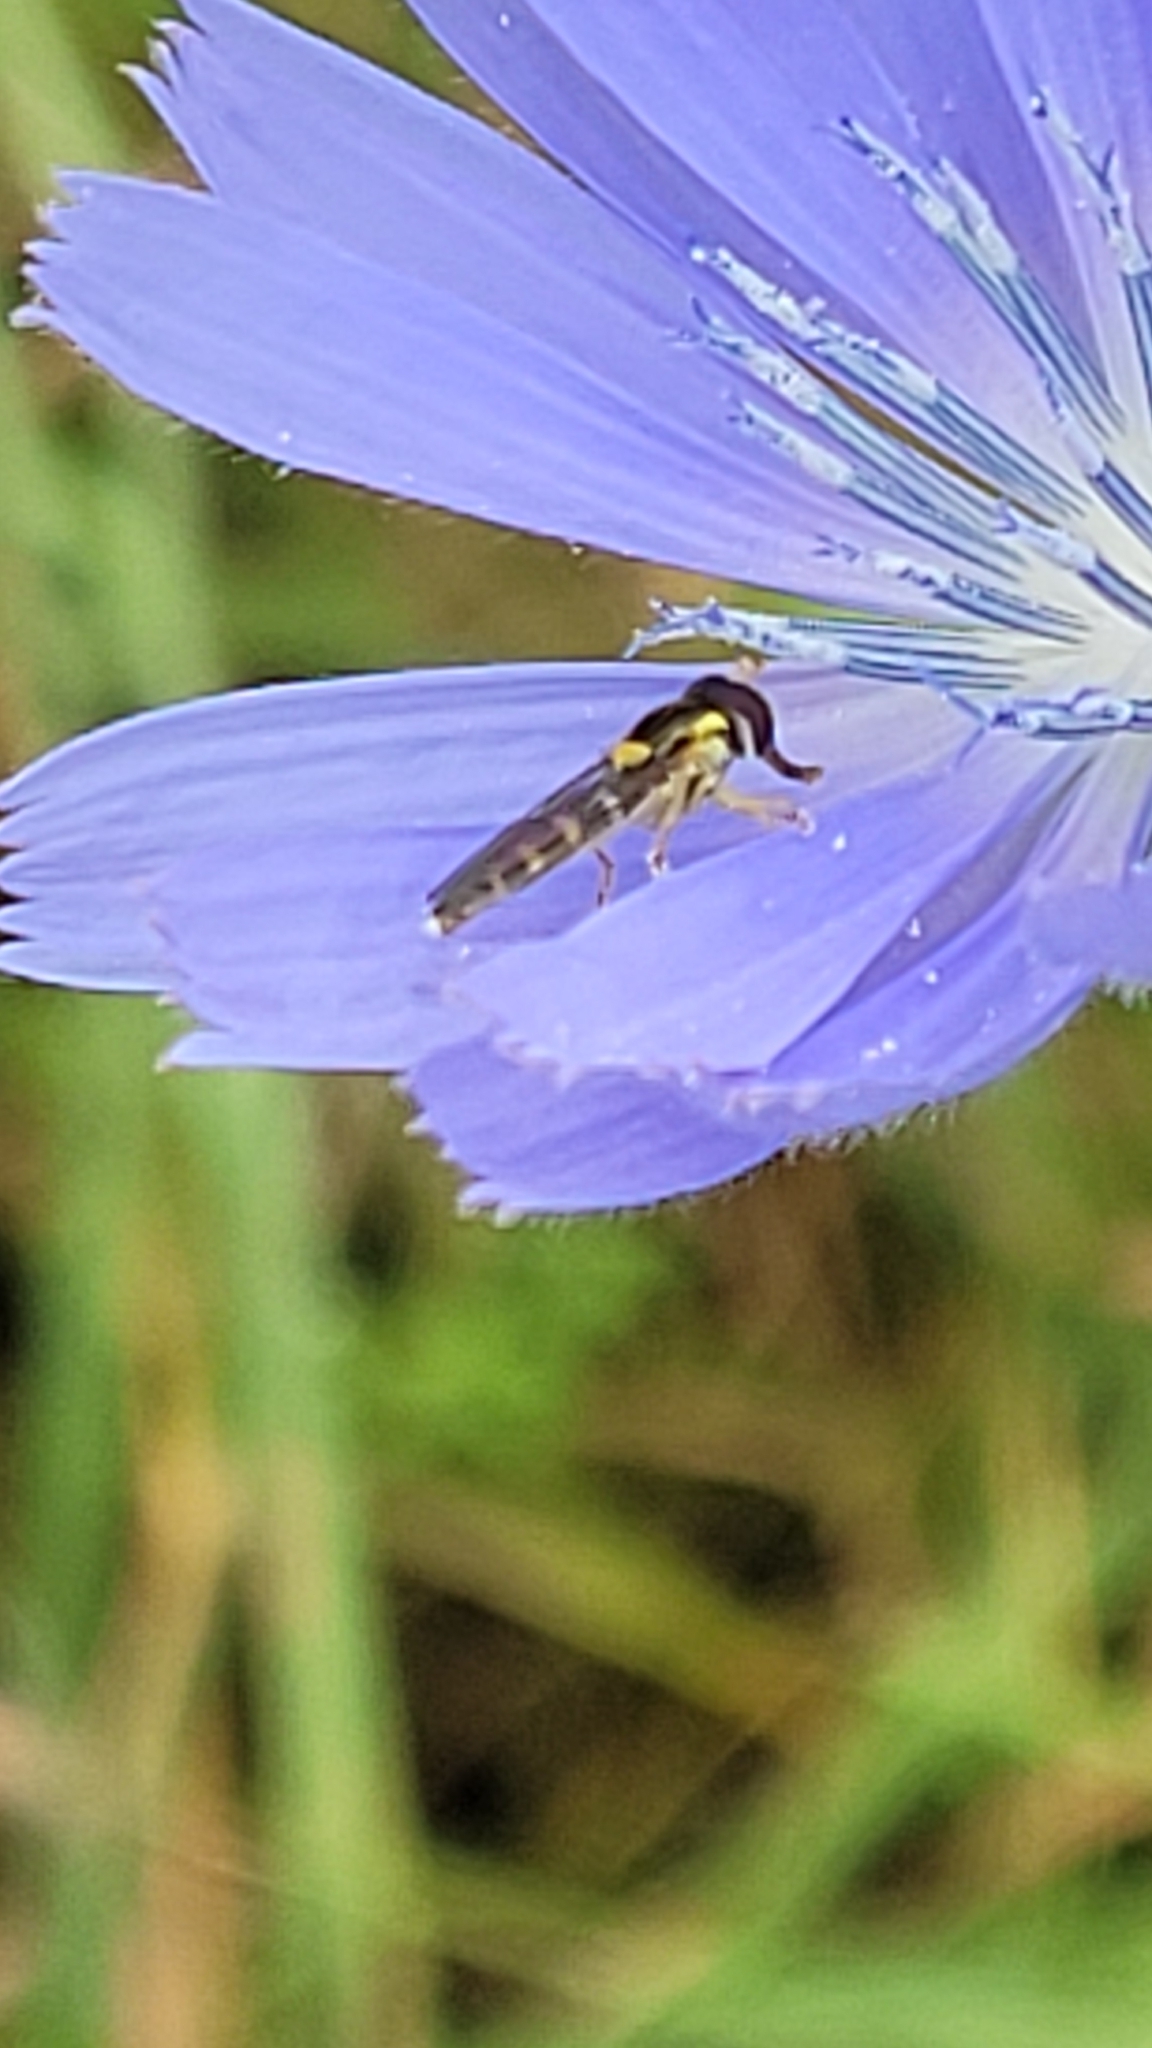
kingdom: Animalia
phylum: Arthropoda
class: Insecta
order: Diptera
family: Syrphidae
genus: Sphaerophoria
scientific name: Sphaerophoria
